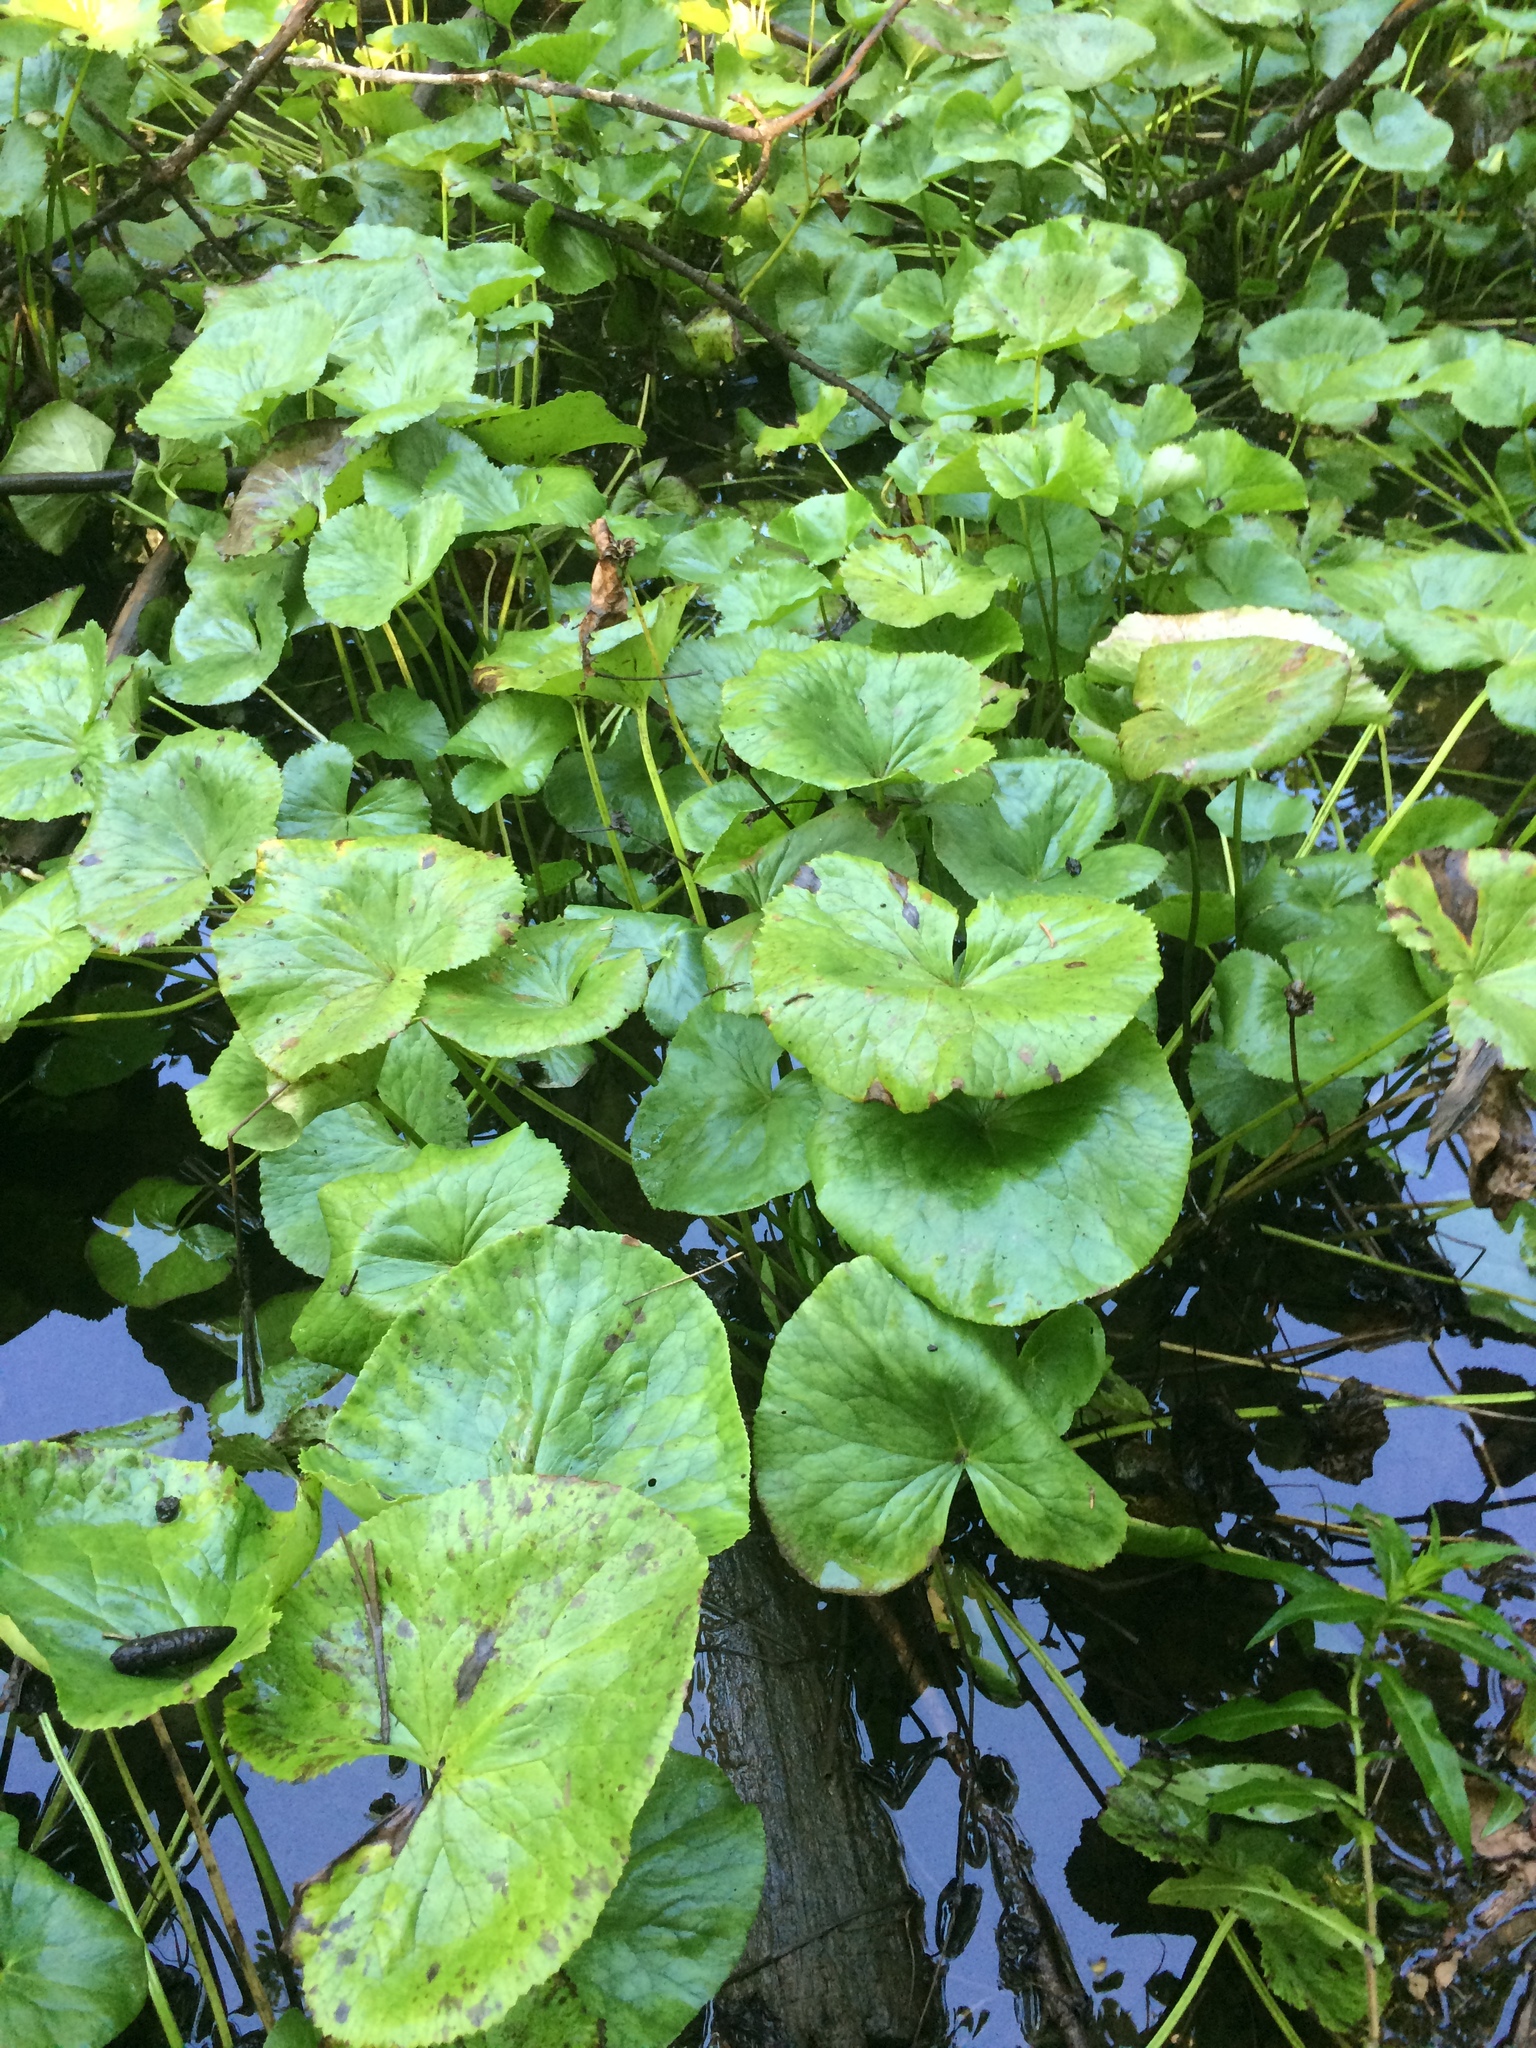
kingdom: Plantae
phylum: Tracheophyta
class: Magnoliopsida
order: Ranunculales
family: Ranunculaceae
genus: Caltha
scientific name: Caltha palustris
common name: Marsh marigold
